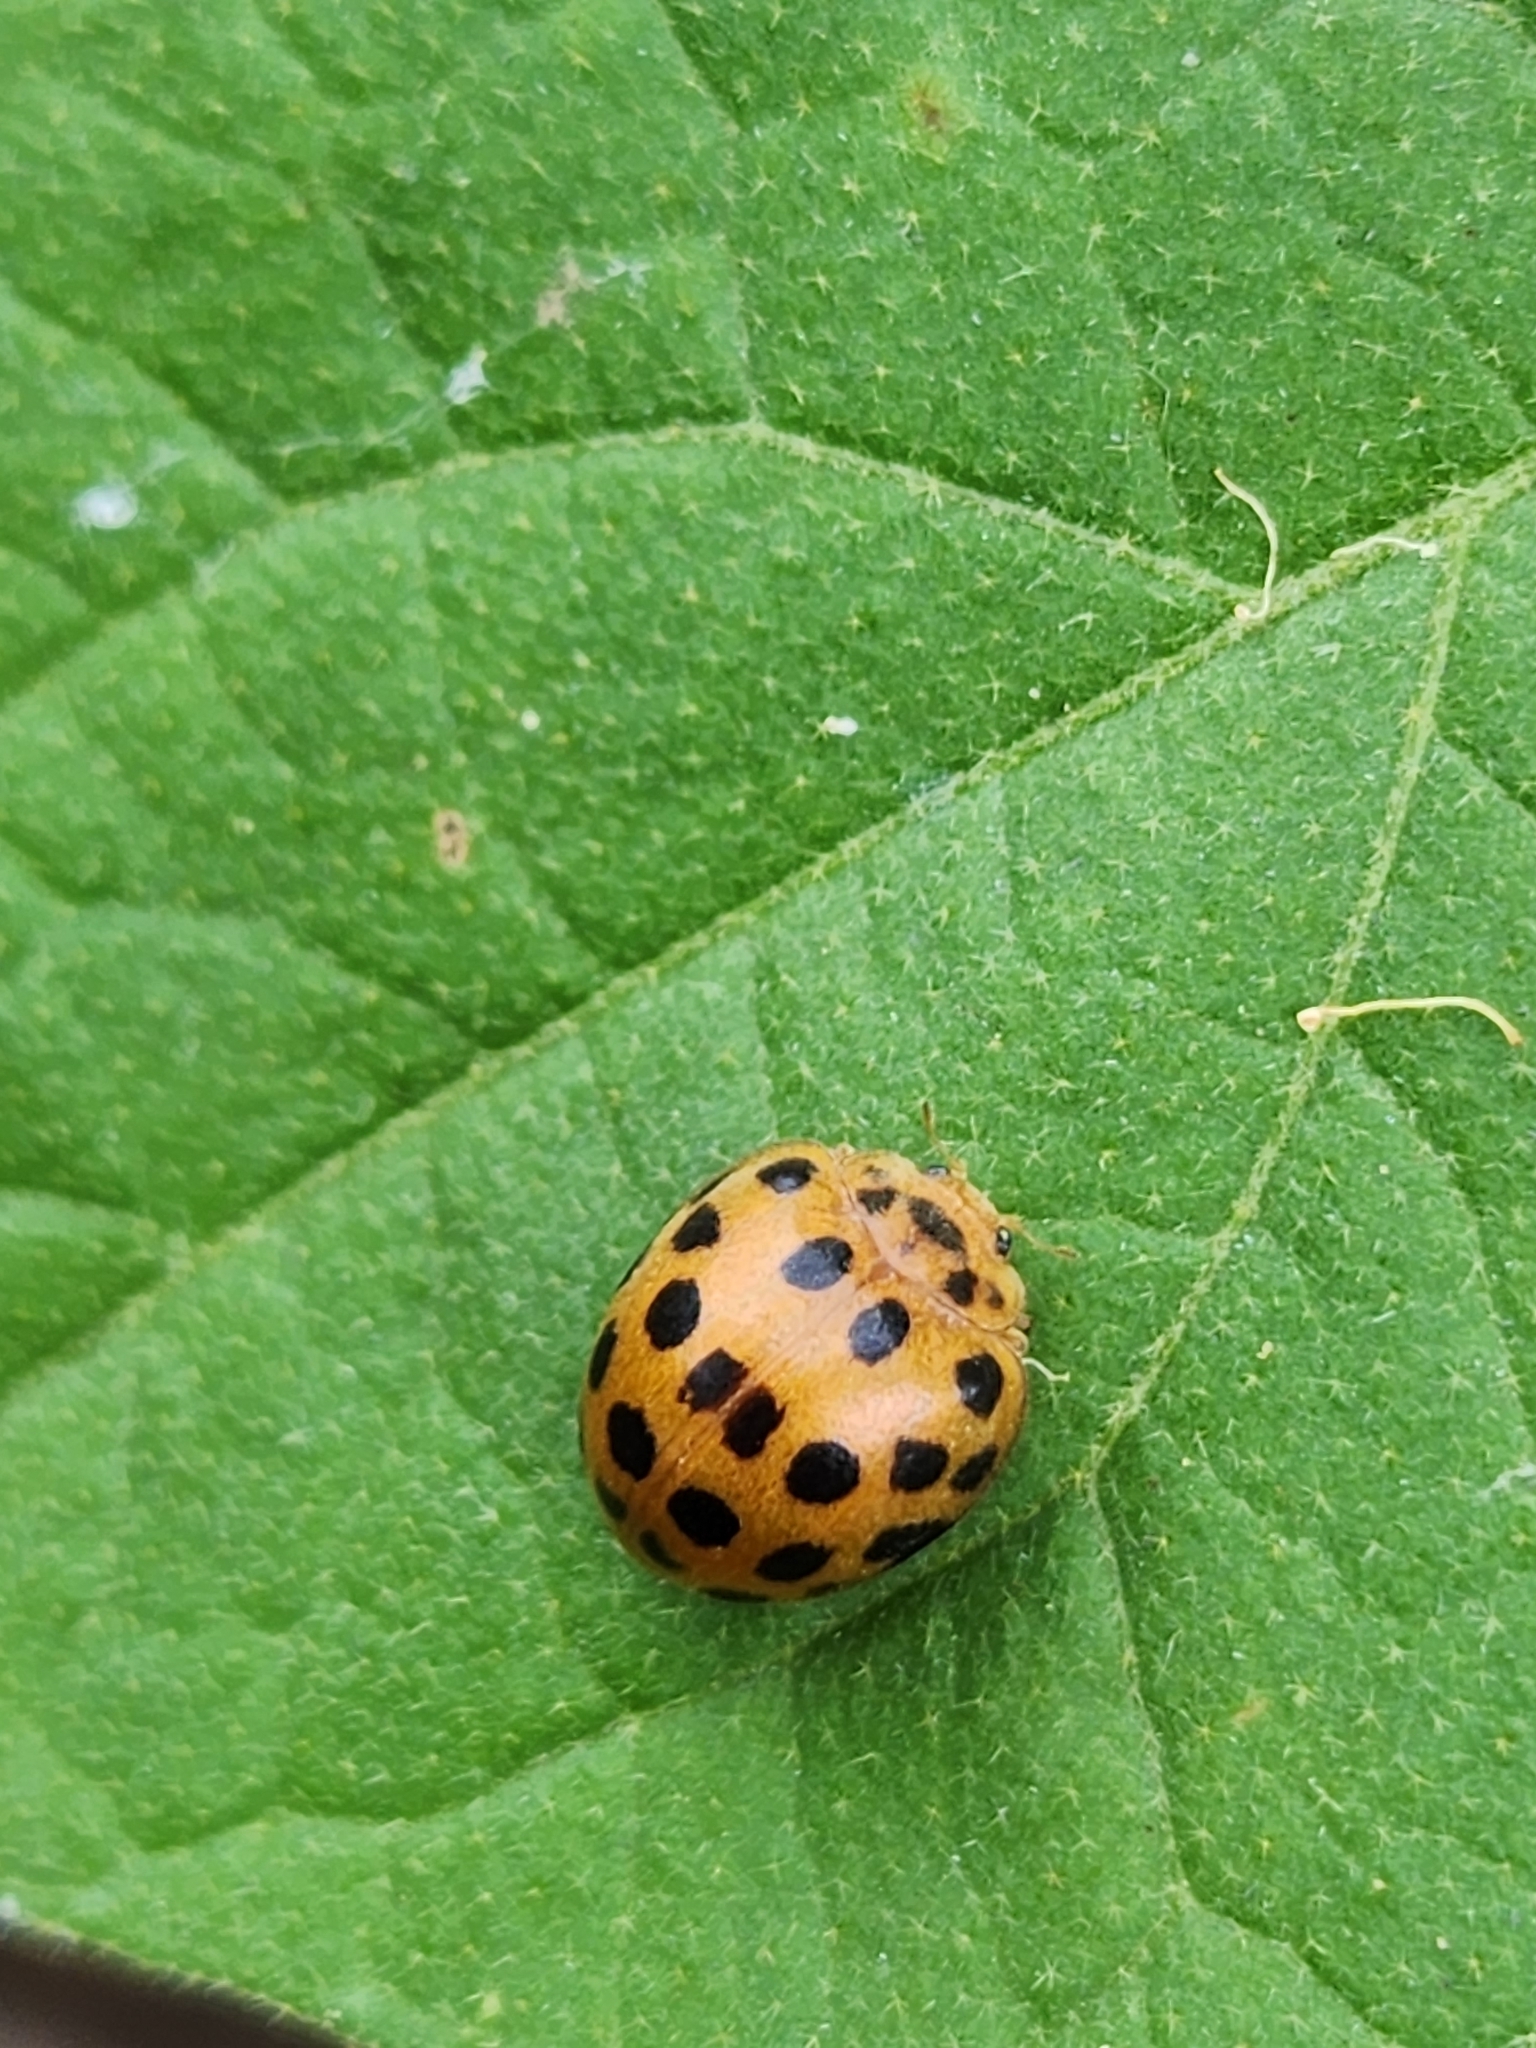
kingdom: Animalia
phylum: Arthropoda
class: Insecta
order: Coleoptera
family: Coccinellidae
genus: Henosepilachna
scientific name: Henosepilachna vigintioctopunctata
